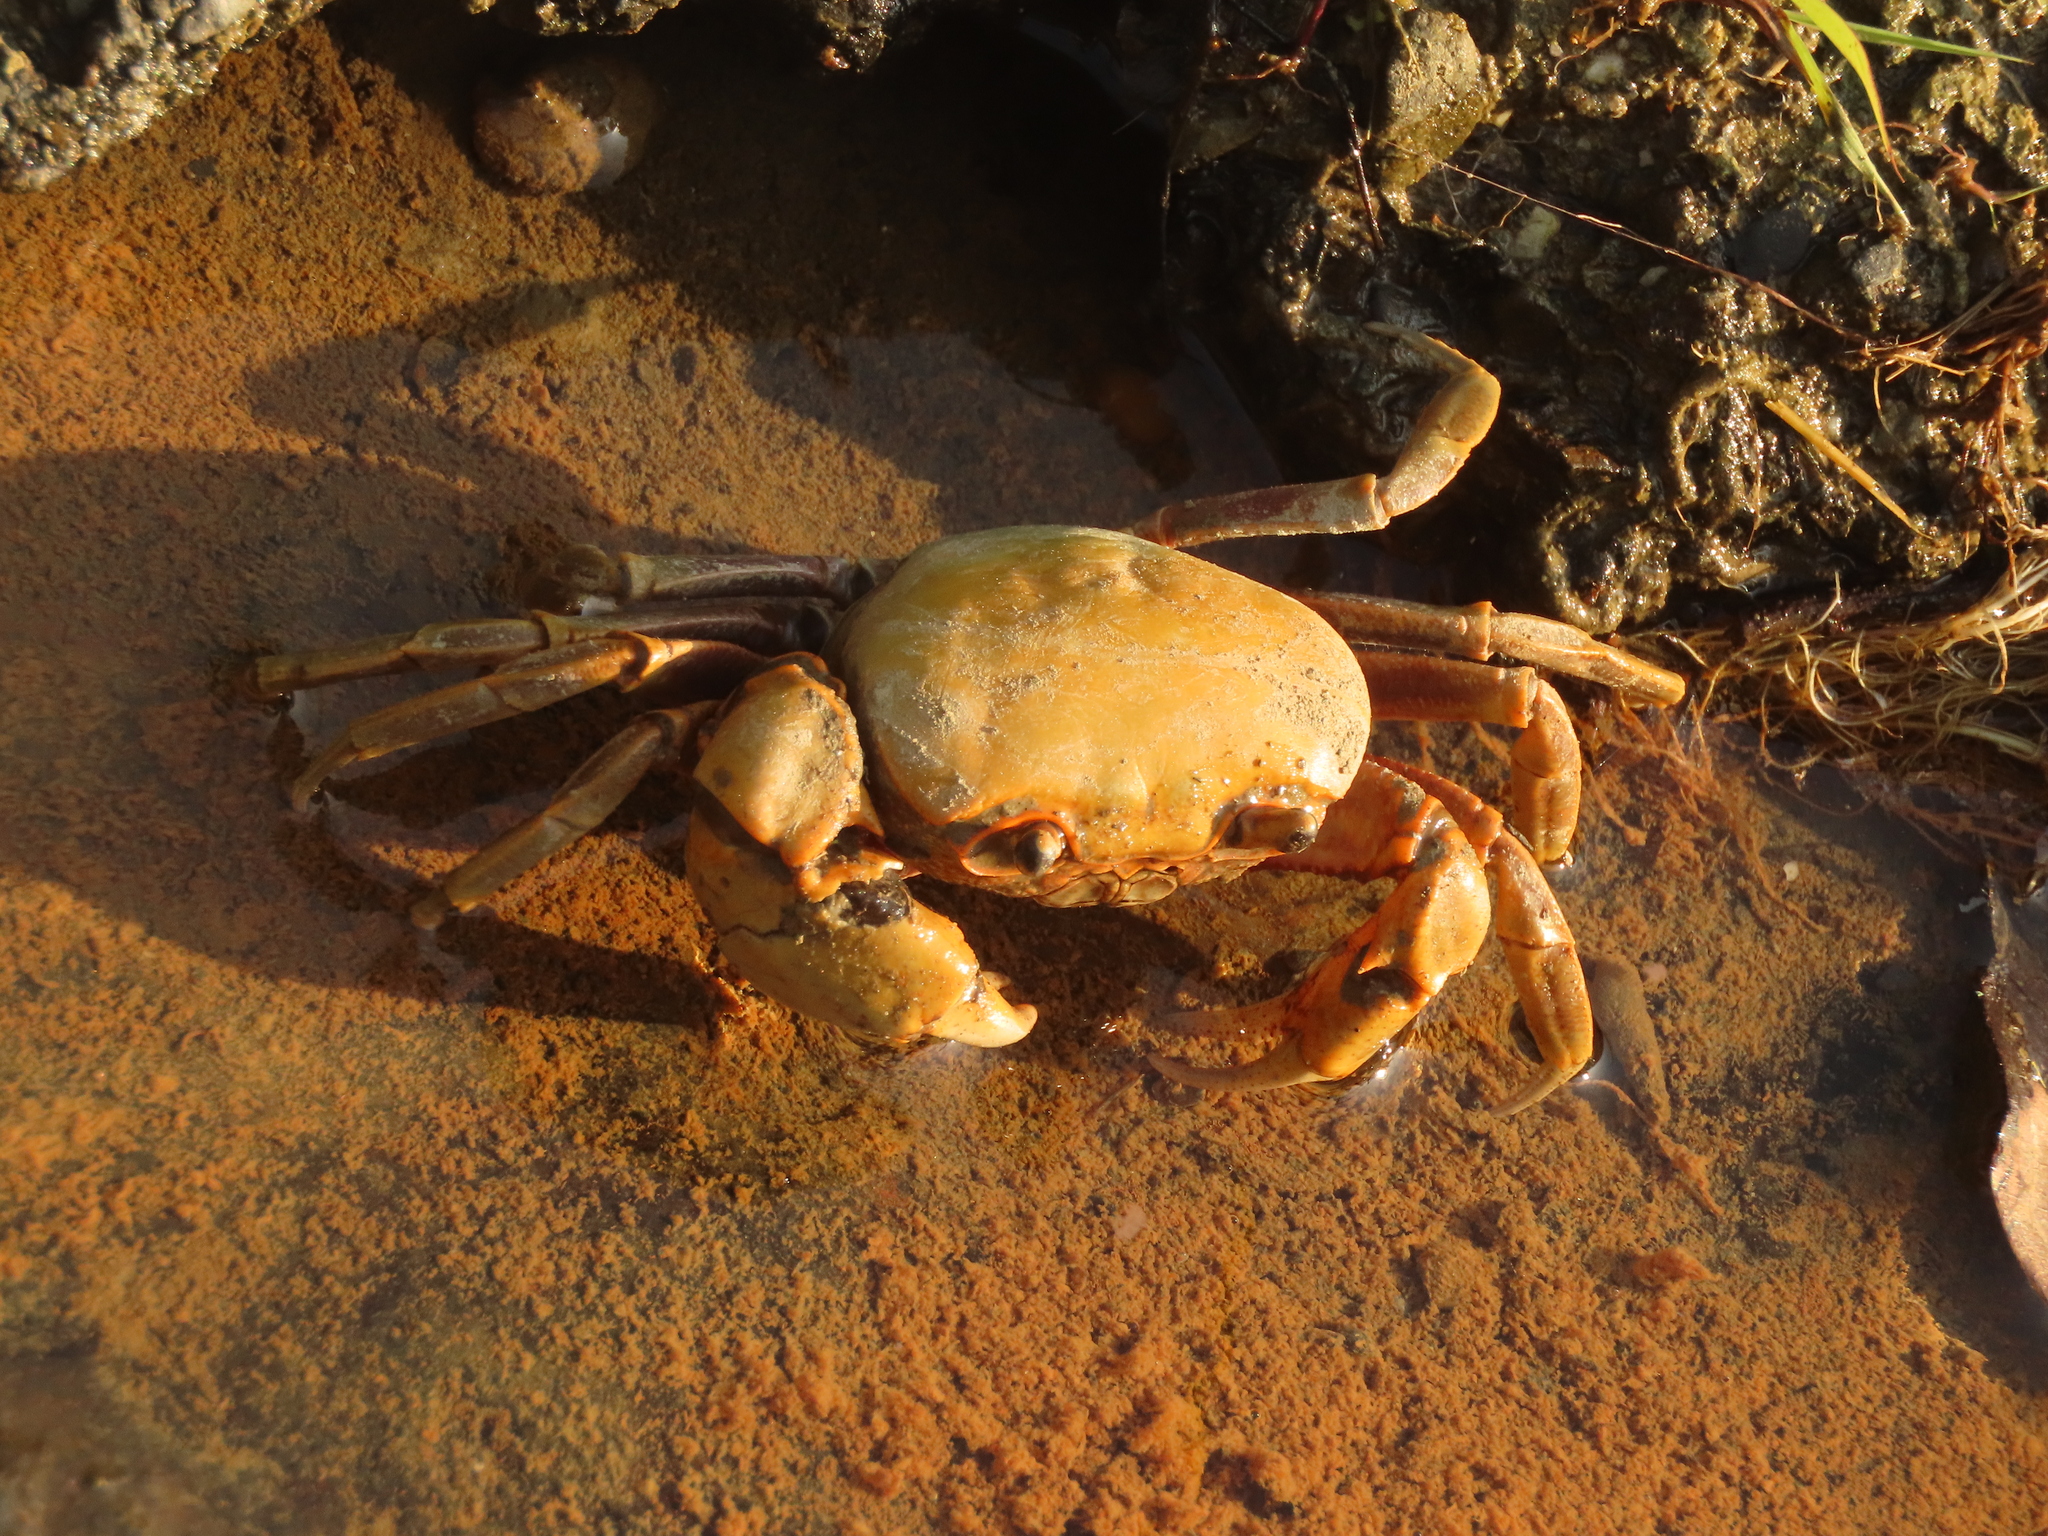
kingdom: Animalia
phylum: Arthropoda
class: Malacostraca
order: Decapoda
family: Potamidae
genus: Nanhaipotamon
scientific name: Nanhaipotamon formosanum
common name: Taiwan's south china sea river crab
